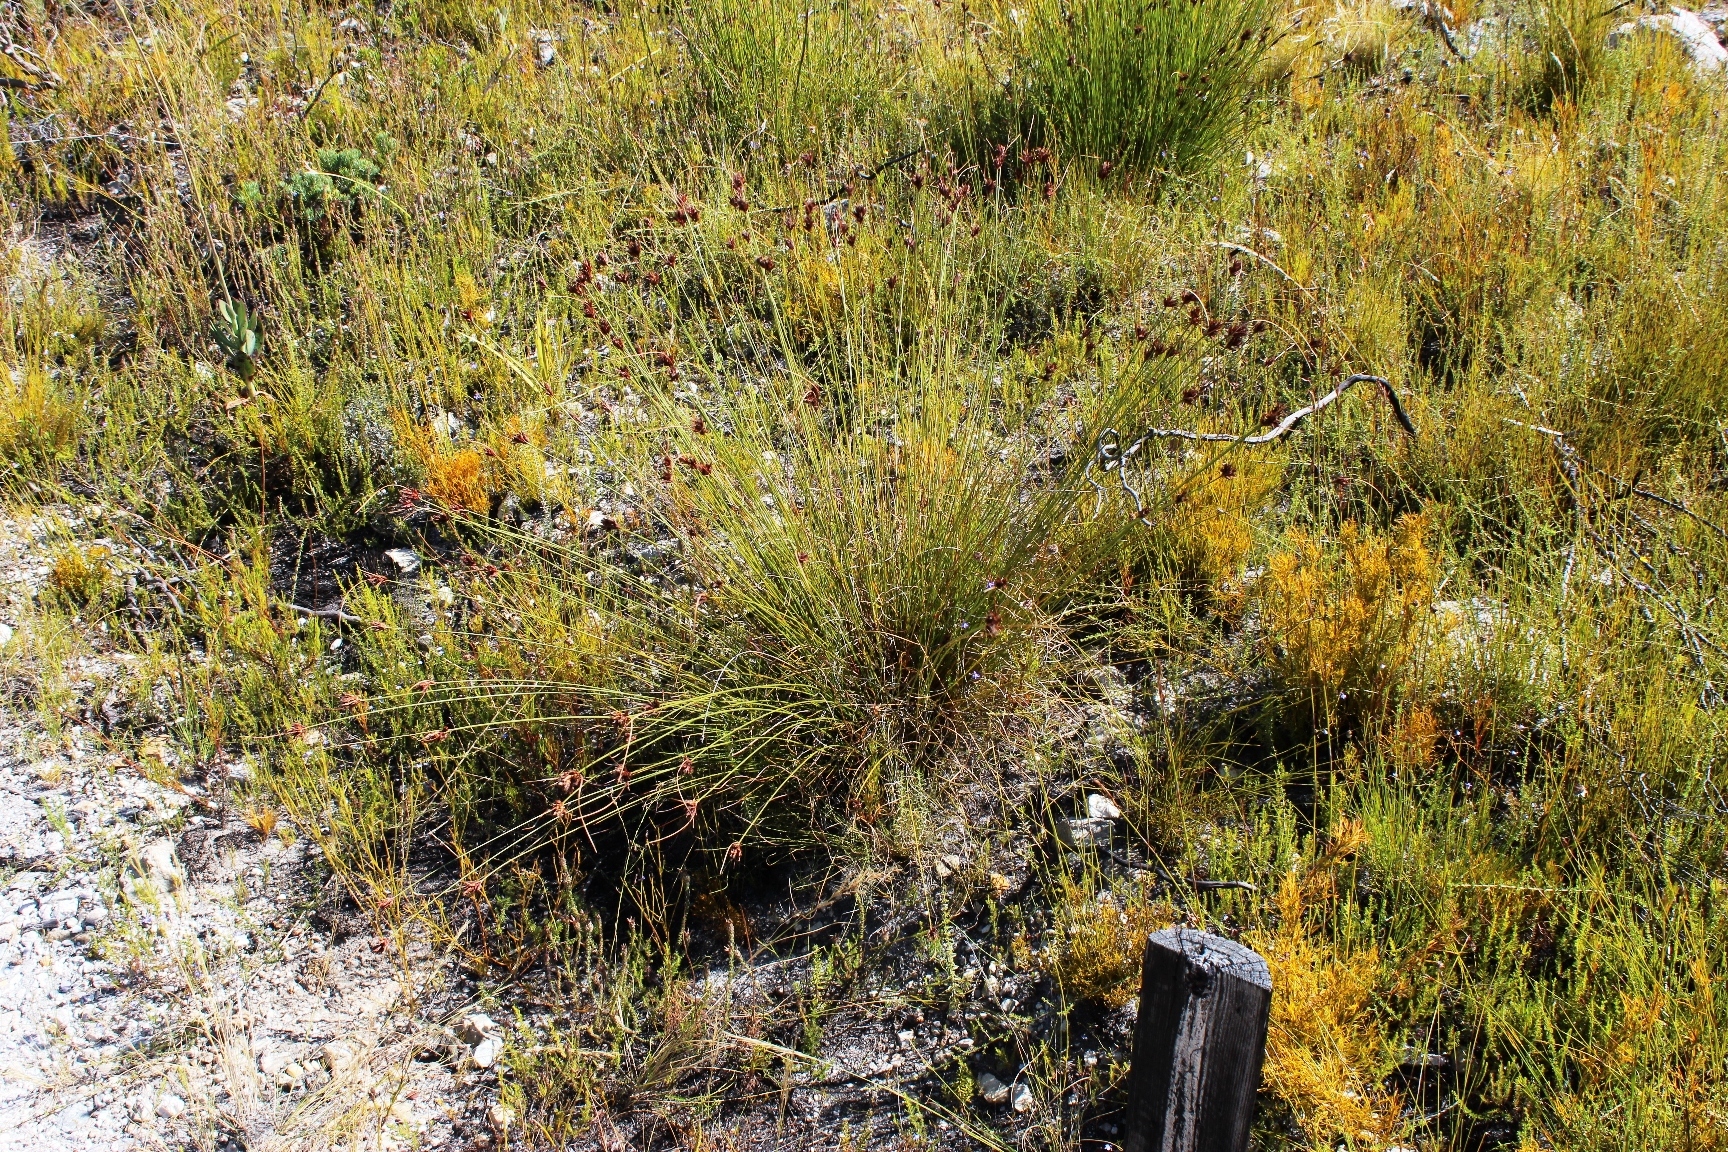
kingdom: Plantae
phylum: Tracheophyta
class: Liliopsida
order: Poales
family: Cyperaceae
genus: Schoenus
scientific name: Schoenus compar
